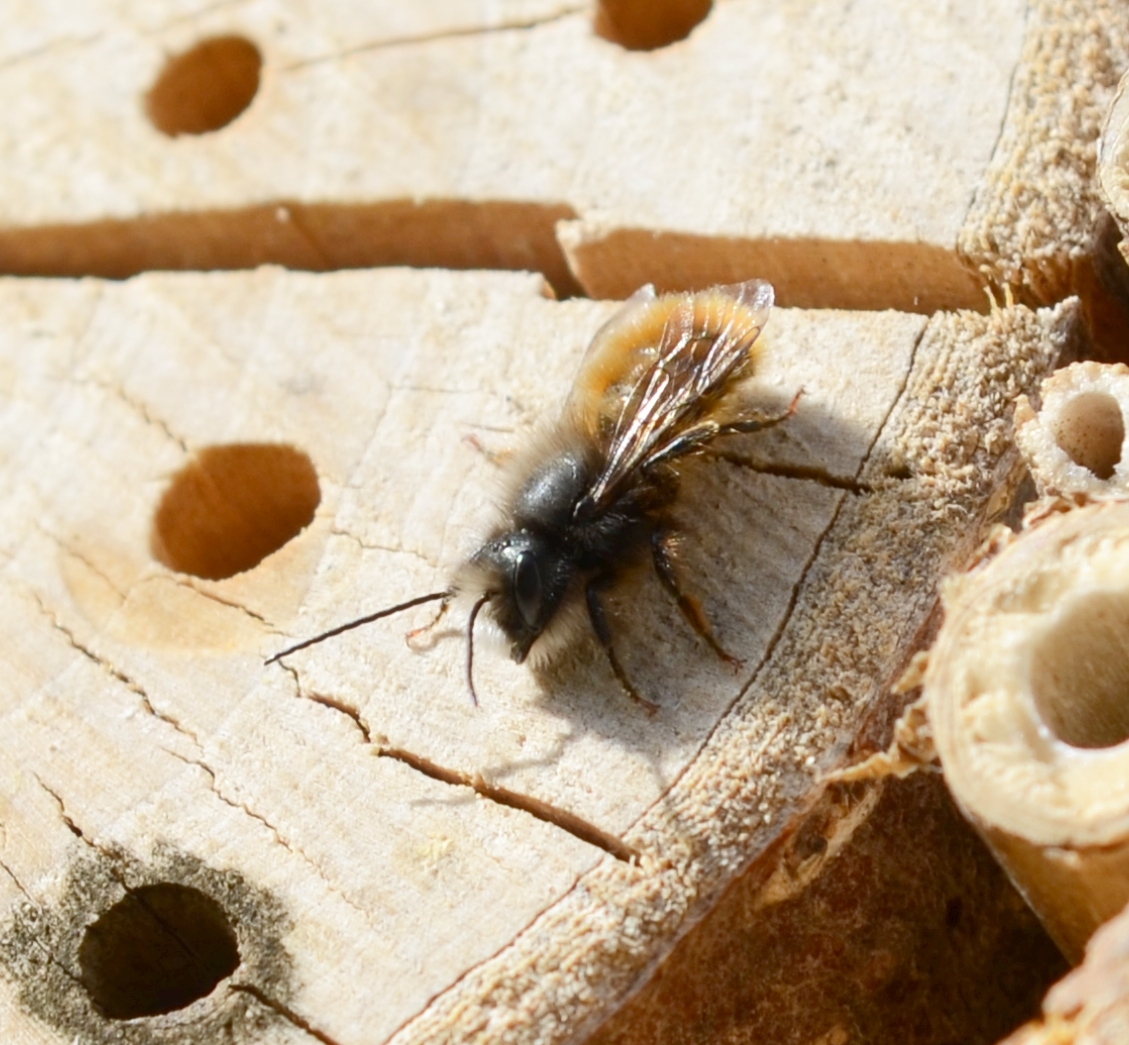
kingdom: Animalia
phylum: Arthropoda
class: Insecta
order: Hymenoptera
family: Megachilidae
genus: Osmia
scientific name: Osmia cornuta
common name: Mason bee
